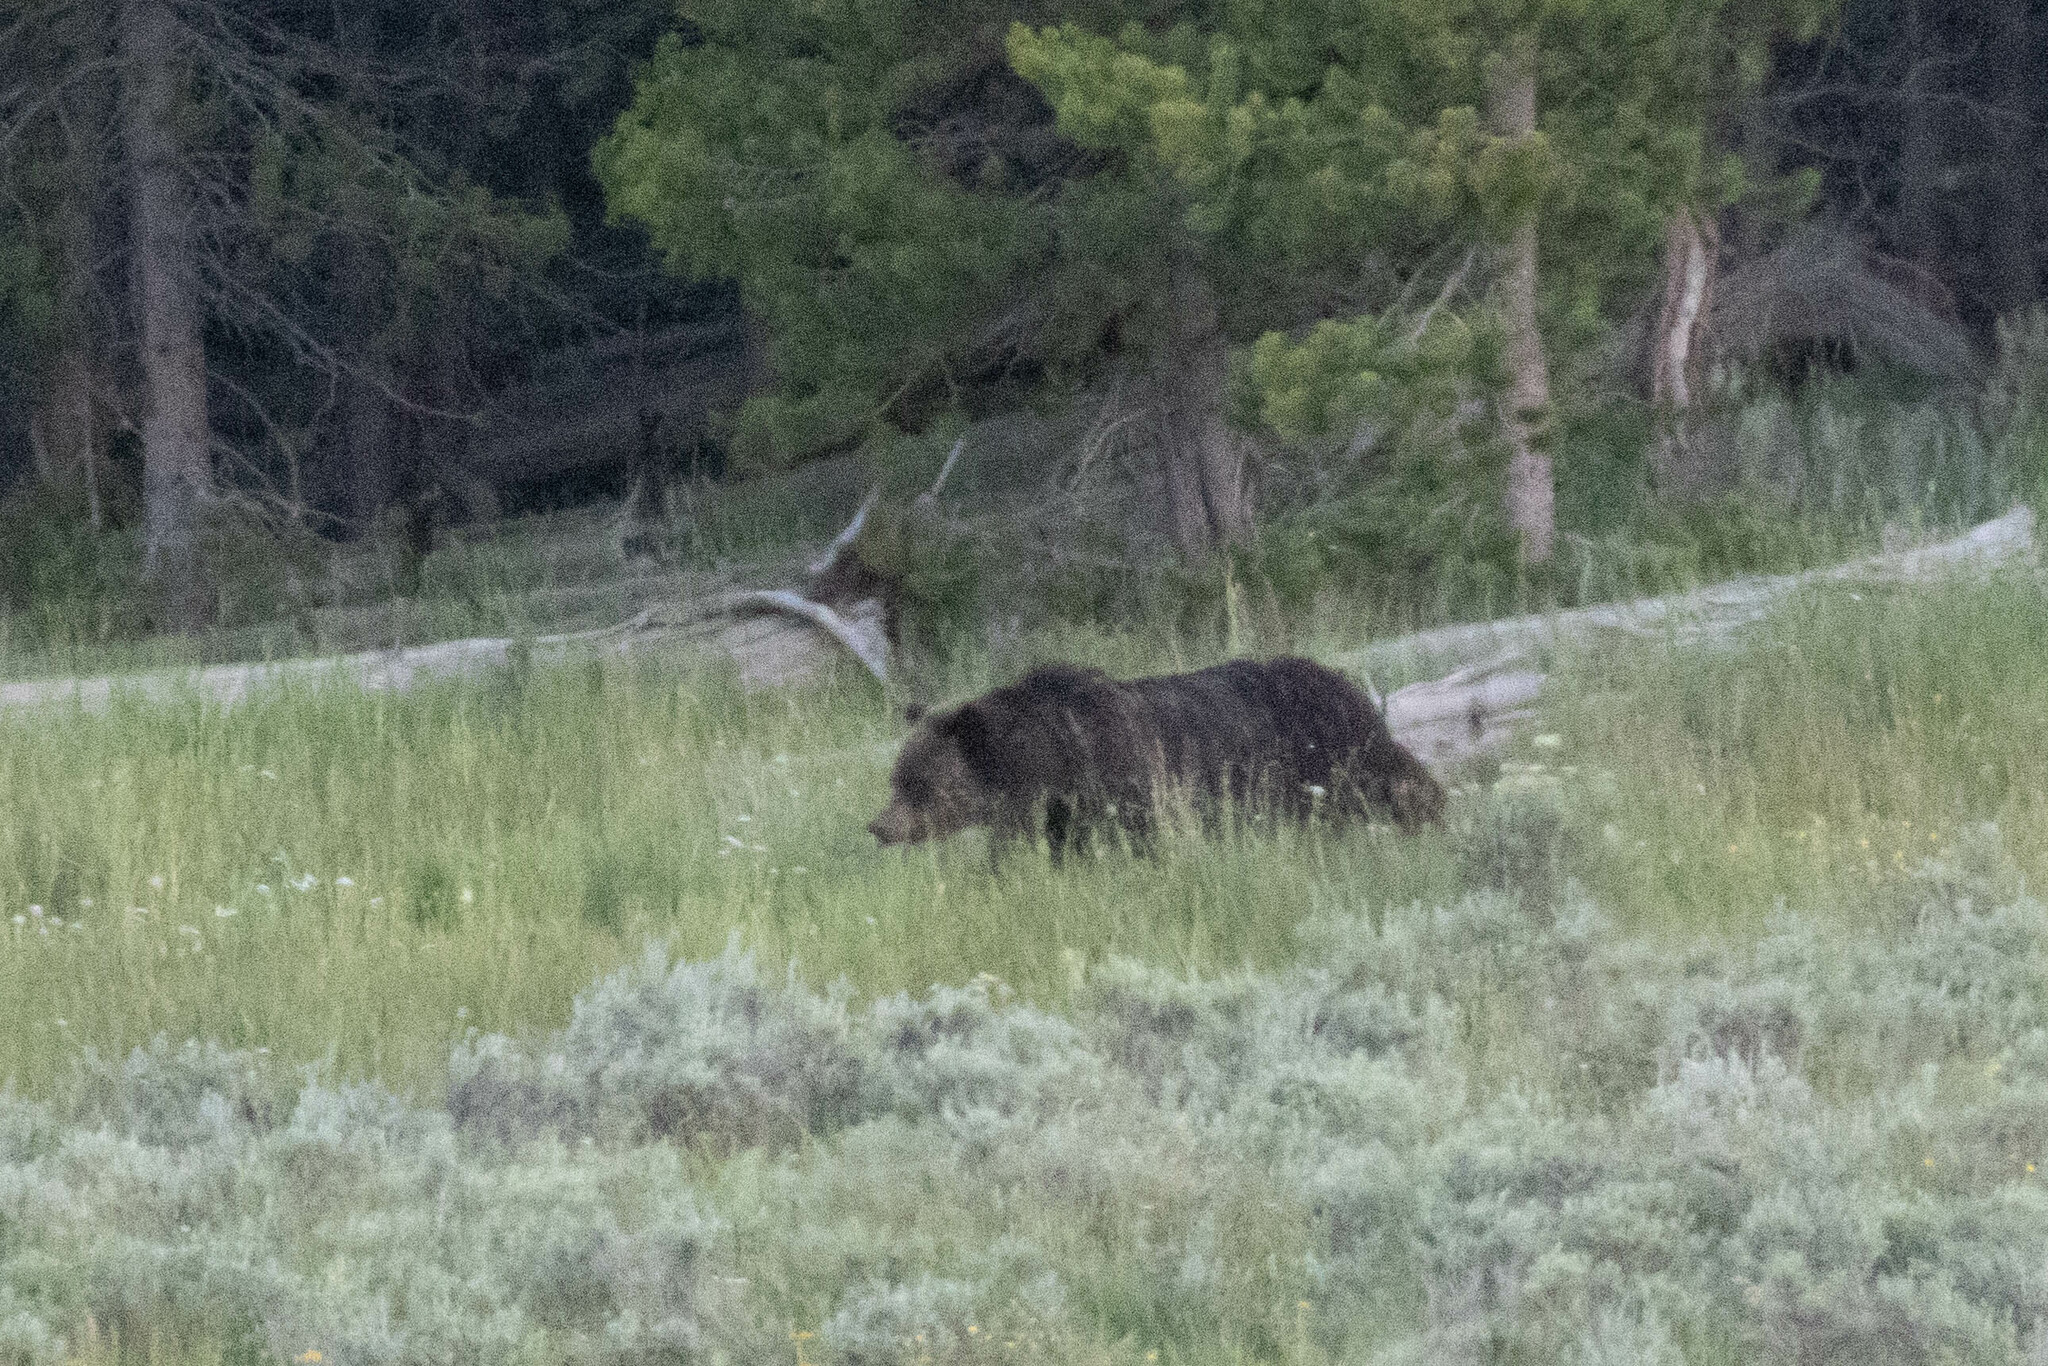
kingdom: Animalia
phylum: Chordata
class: Mammalia
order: Carnivora
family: Ursidae
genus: Ursus
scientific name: Ursus arctos
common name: Brown bear
